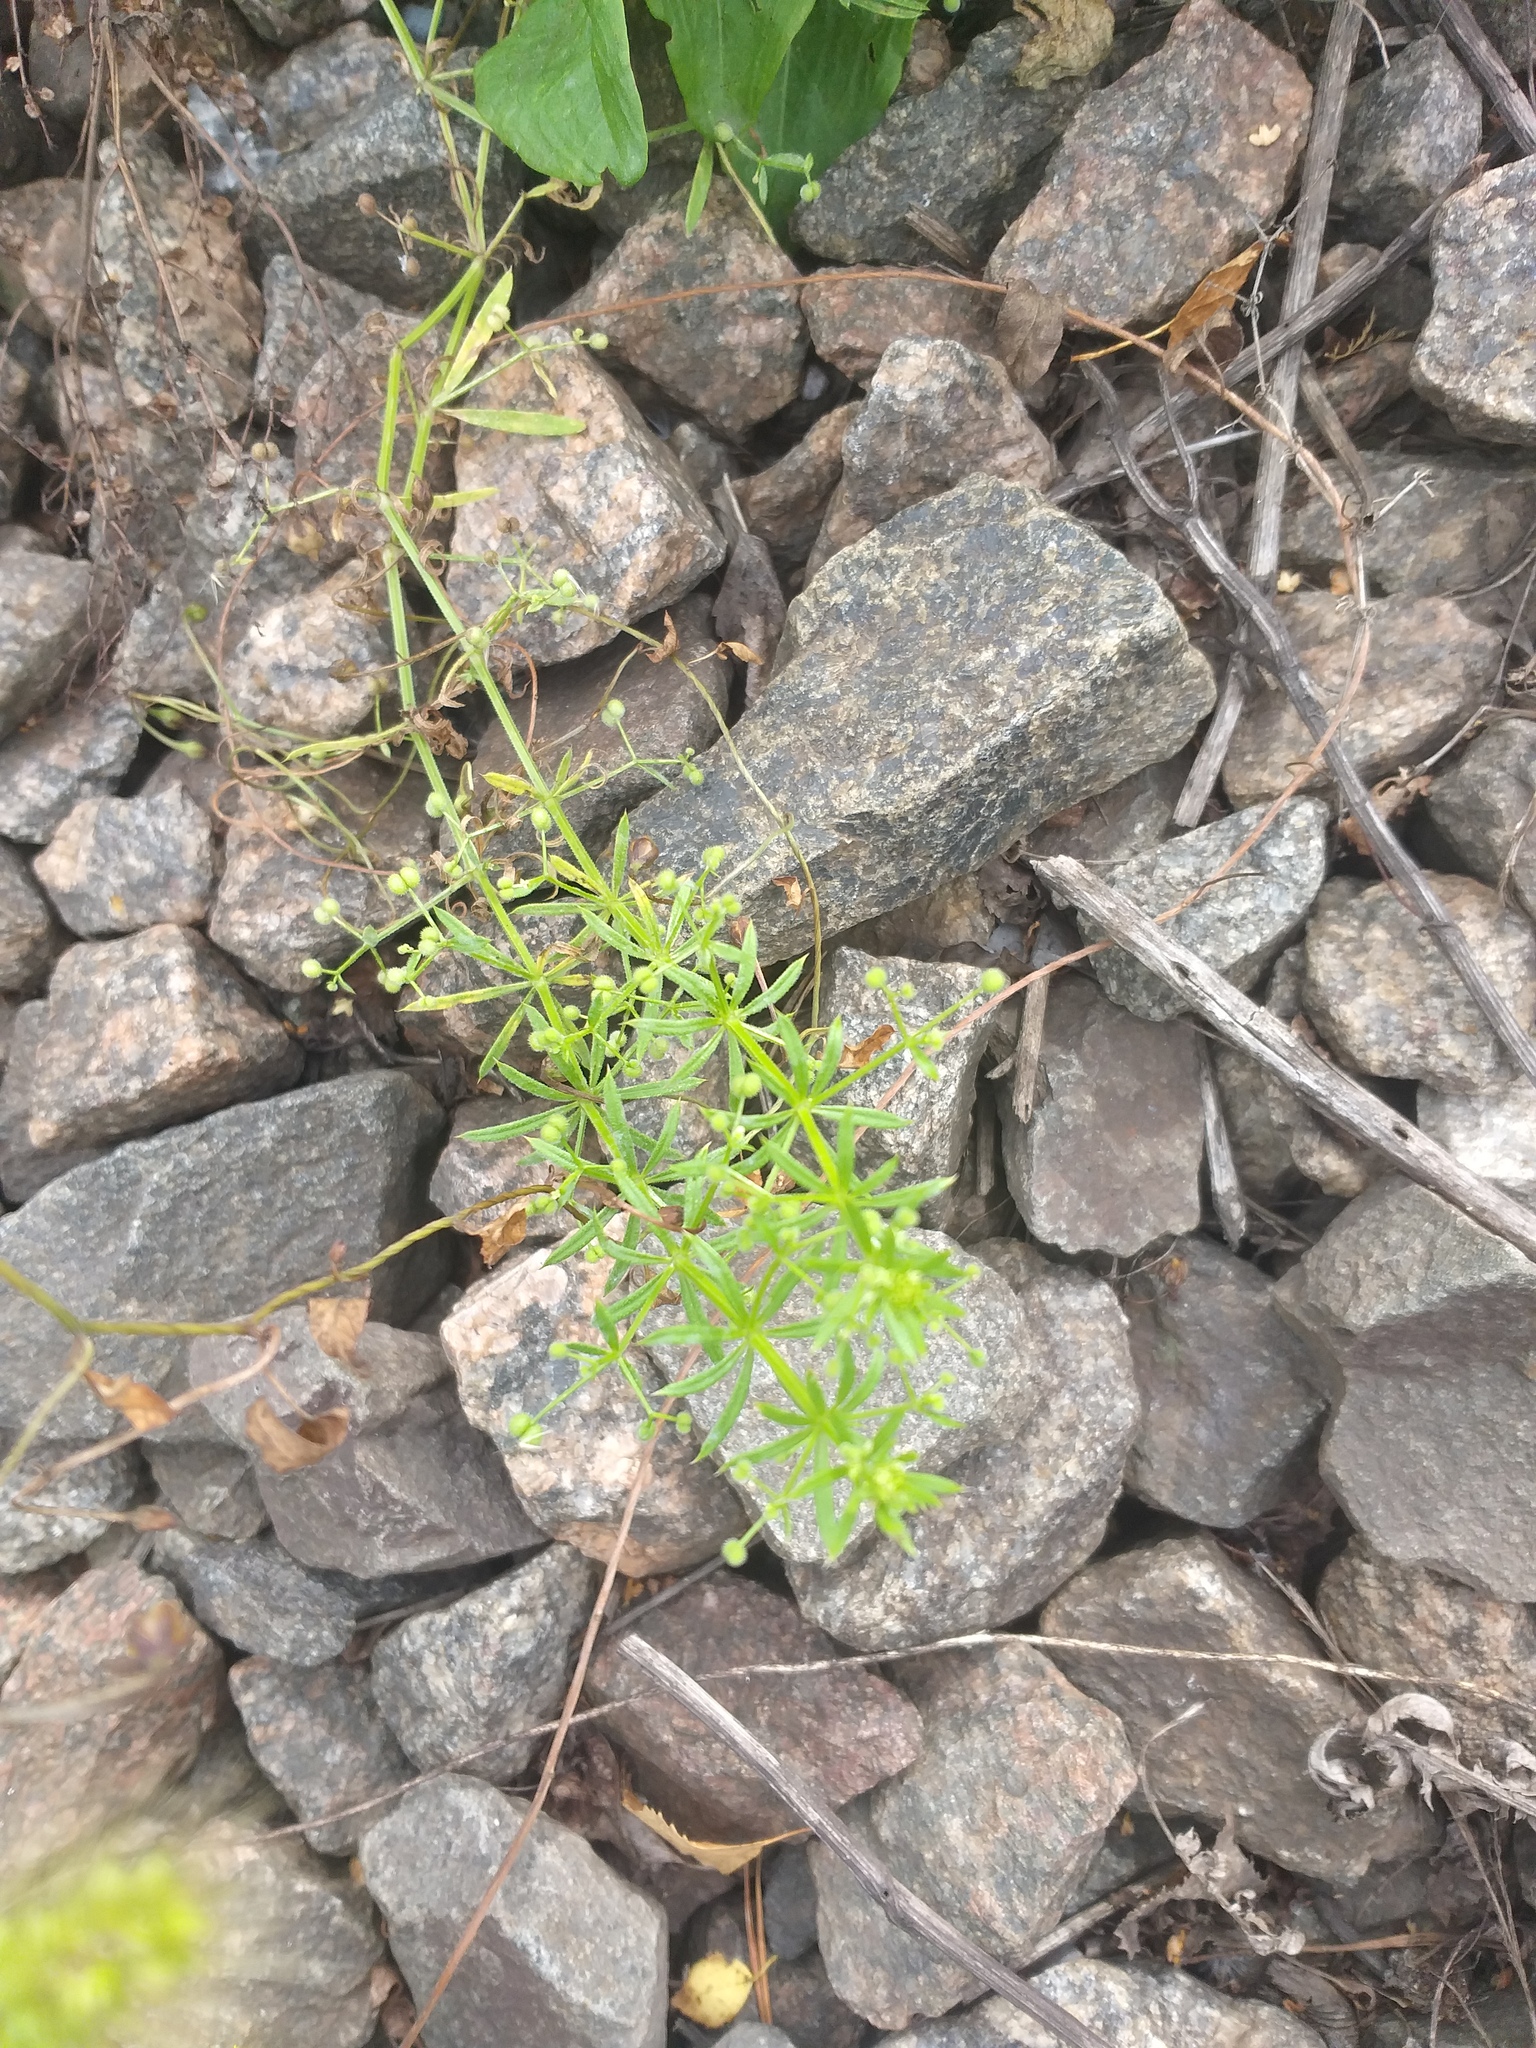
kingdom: Plantae
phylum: Tracheophyta
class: Magnoliopsida
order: Gentianales
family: Rubiaceae
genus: Galium
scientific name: Galium
